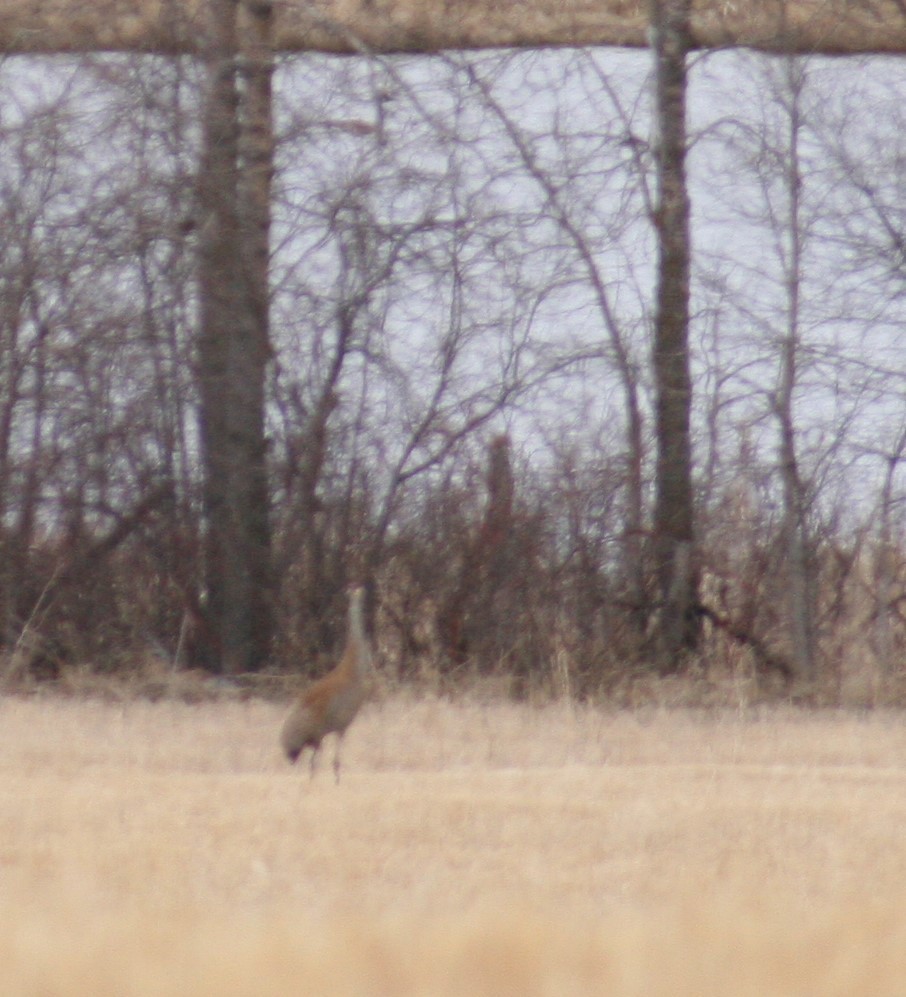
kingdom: Animalia
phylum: Chordata
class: Aves
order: Gruiformes
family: Gruidae
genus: Grus
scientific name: Grus canadensis
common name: Sandhill crane
